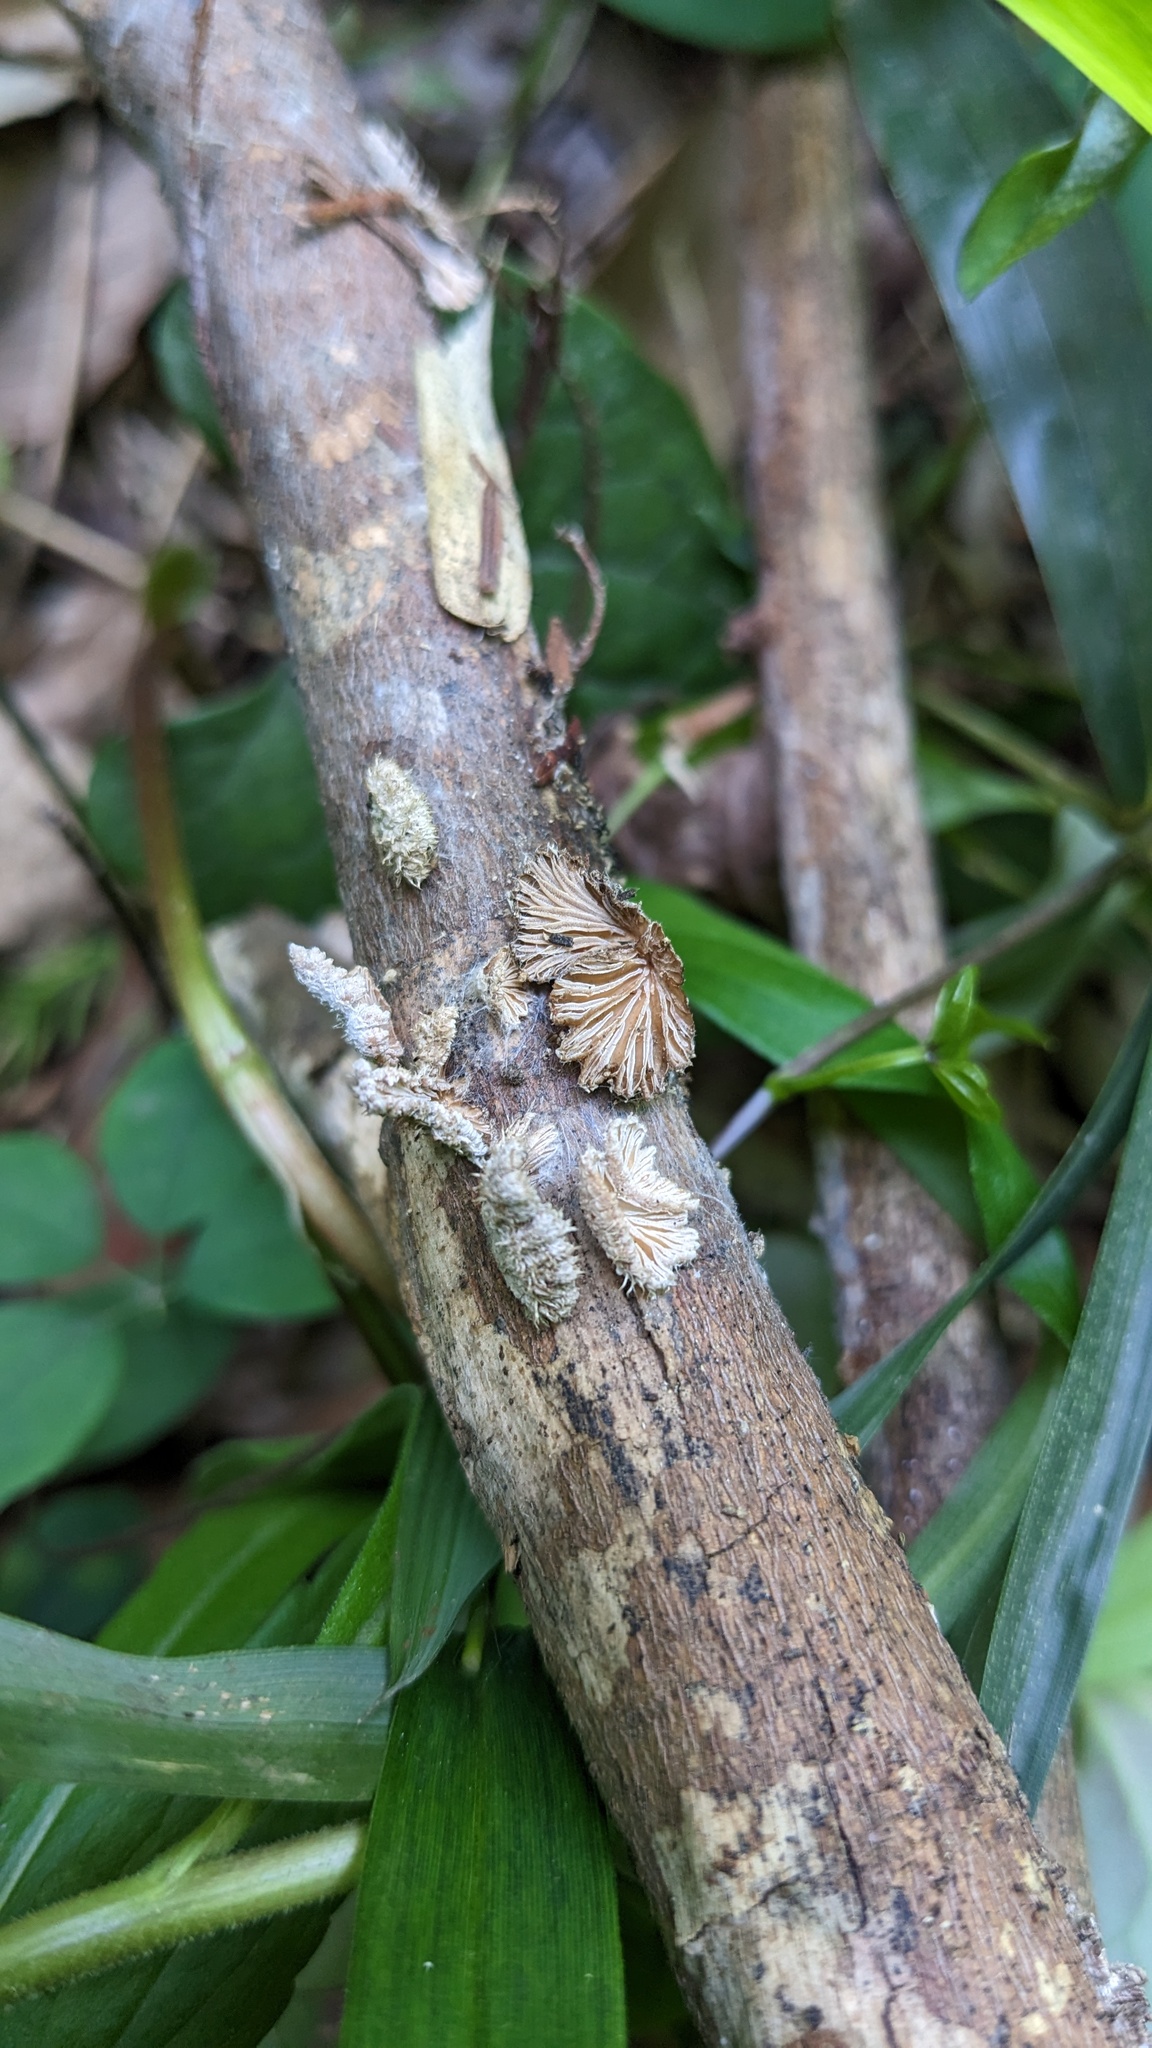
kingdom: Fungi
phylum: Basidiomycota
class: Agaricomycetes
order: Agaricales
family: Schizophyllaceae
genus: Schizophyllum
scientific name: Schizophyllum commune
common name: Common porecrust
